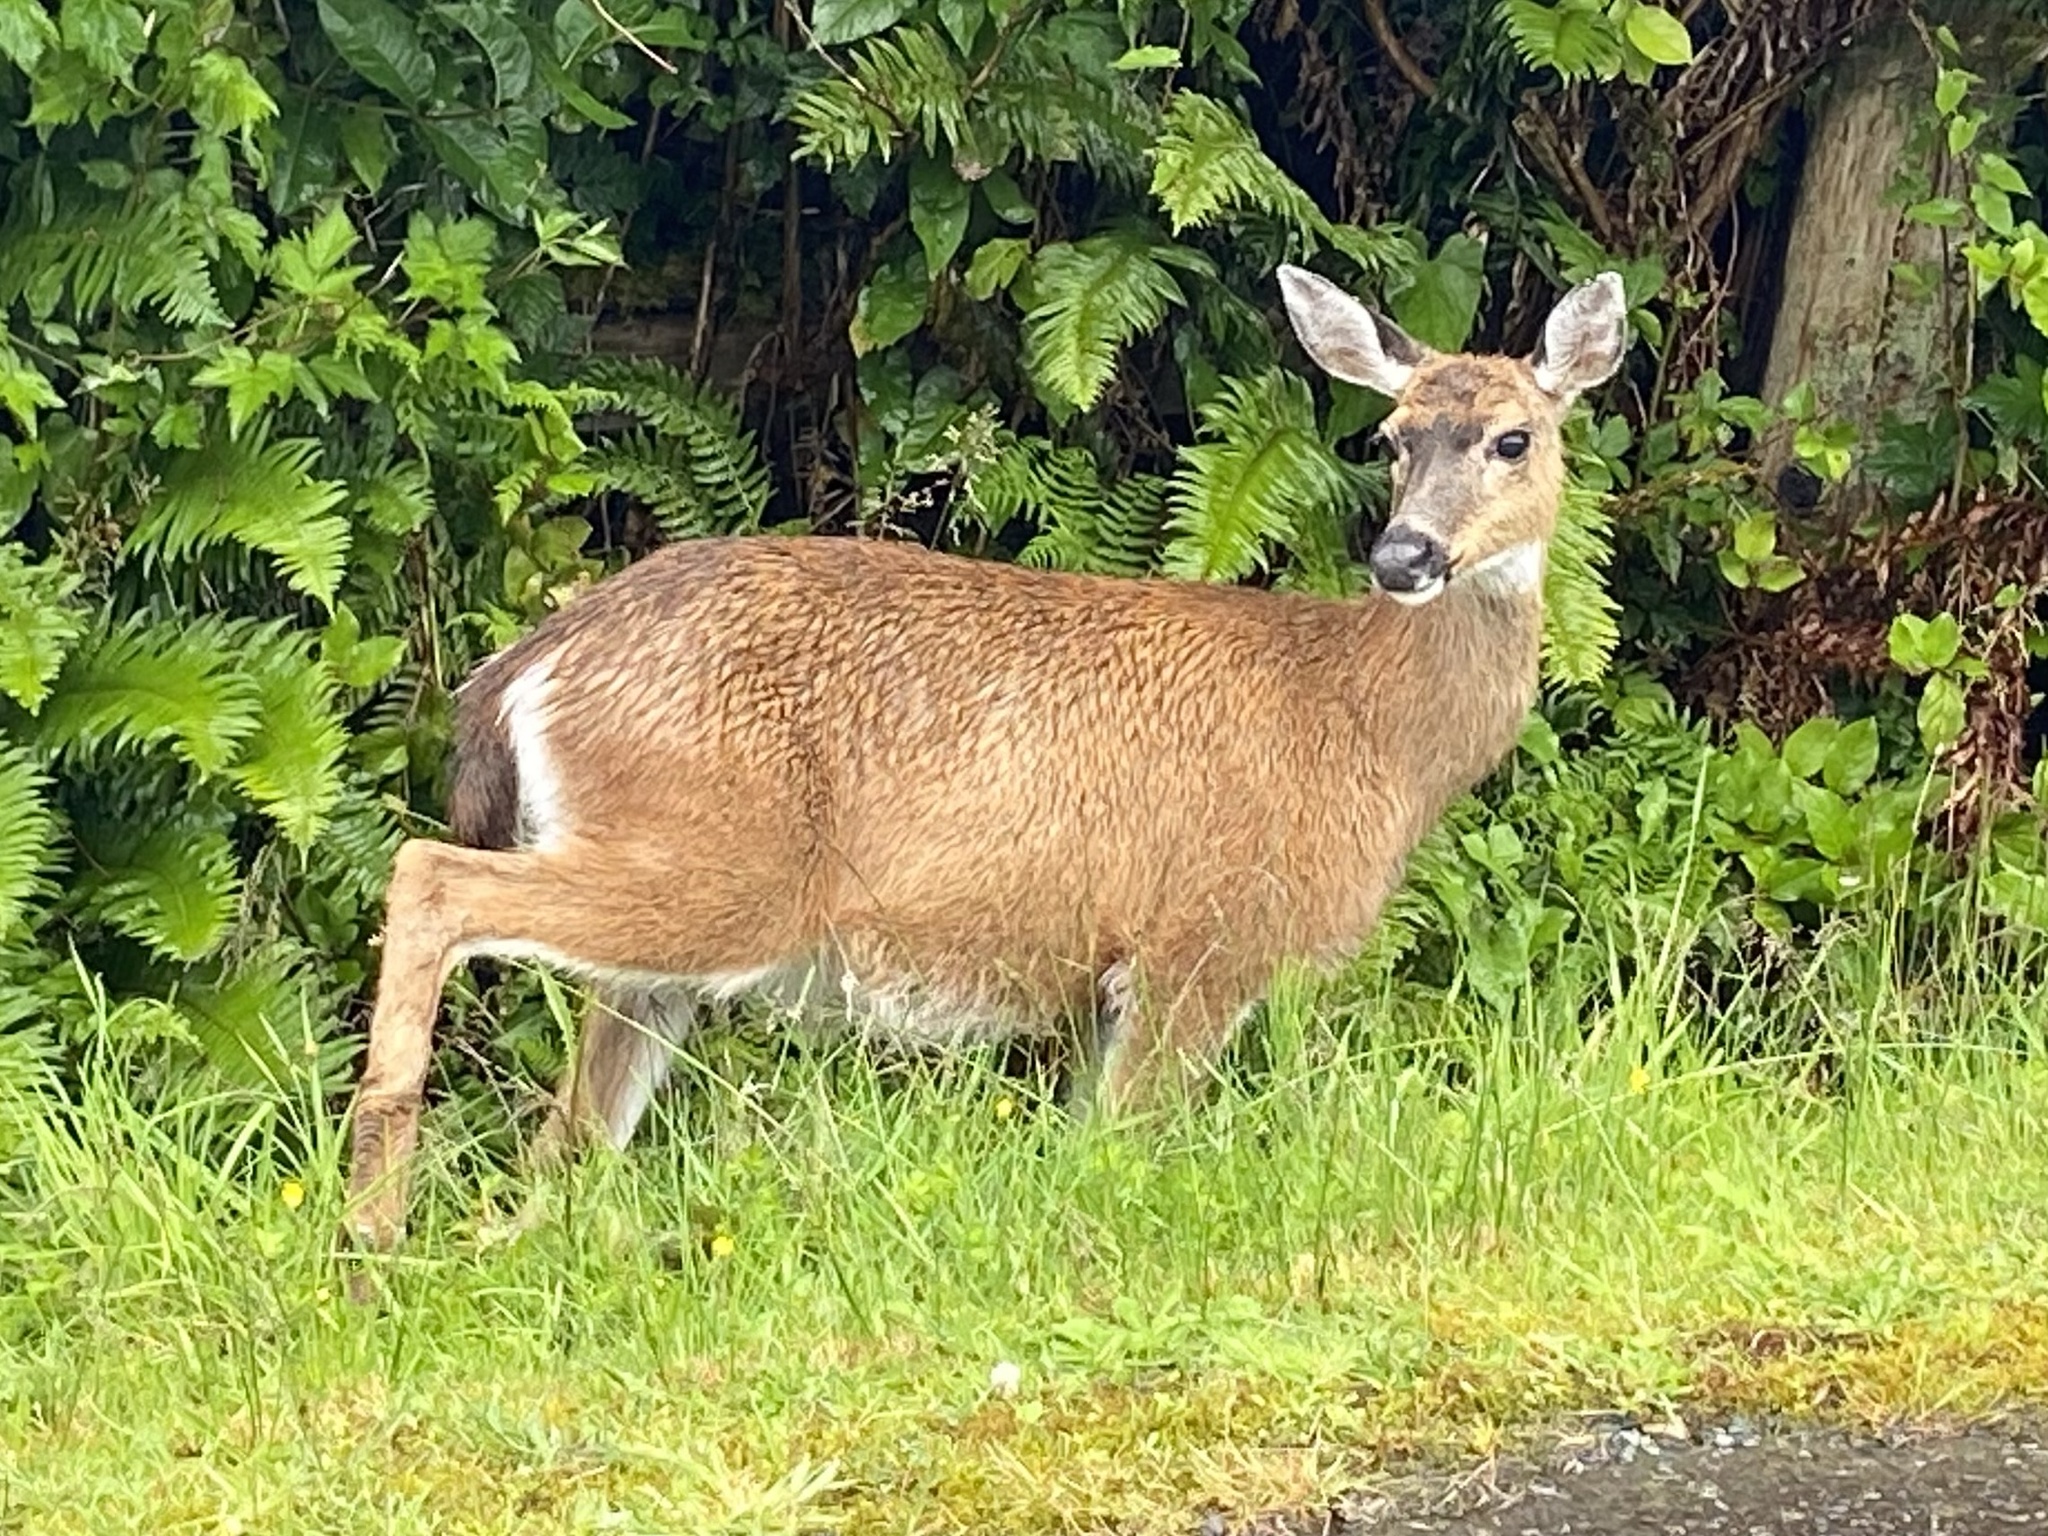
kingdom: Animalia
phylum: Chordata
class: Mammalia
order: Artiodactyla
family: Cervidae
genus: Odocoileus
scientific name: Odocoileus hemionus
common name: Mule deer
